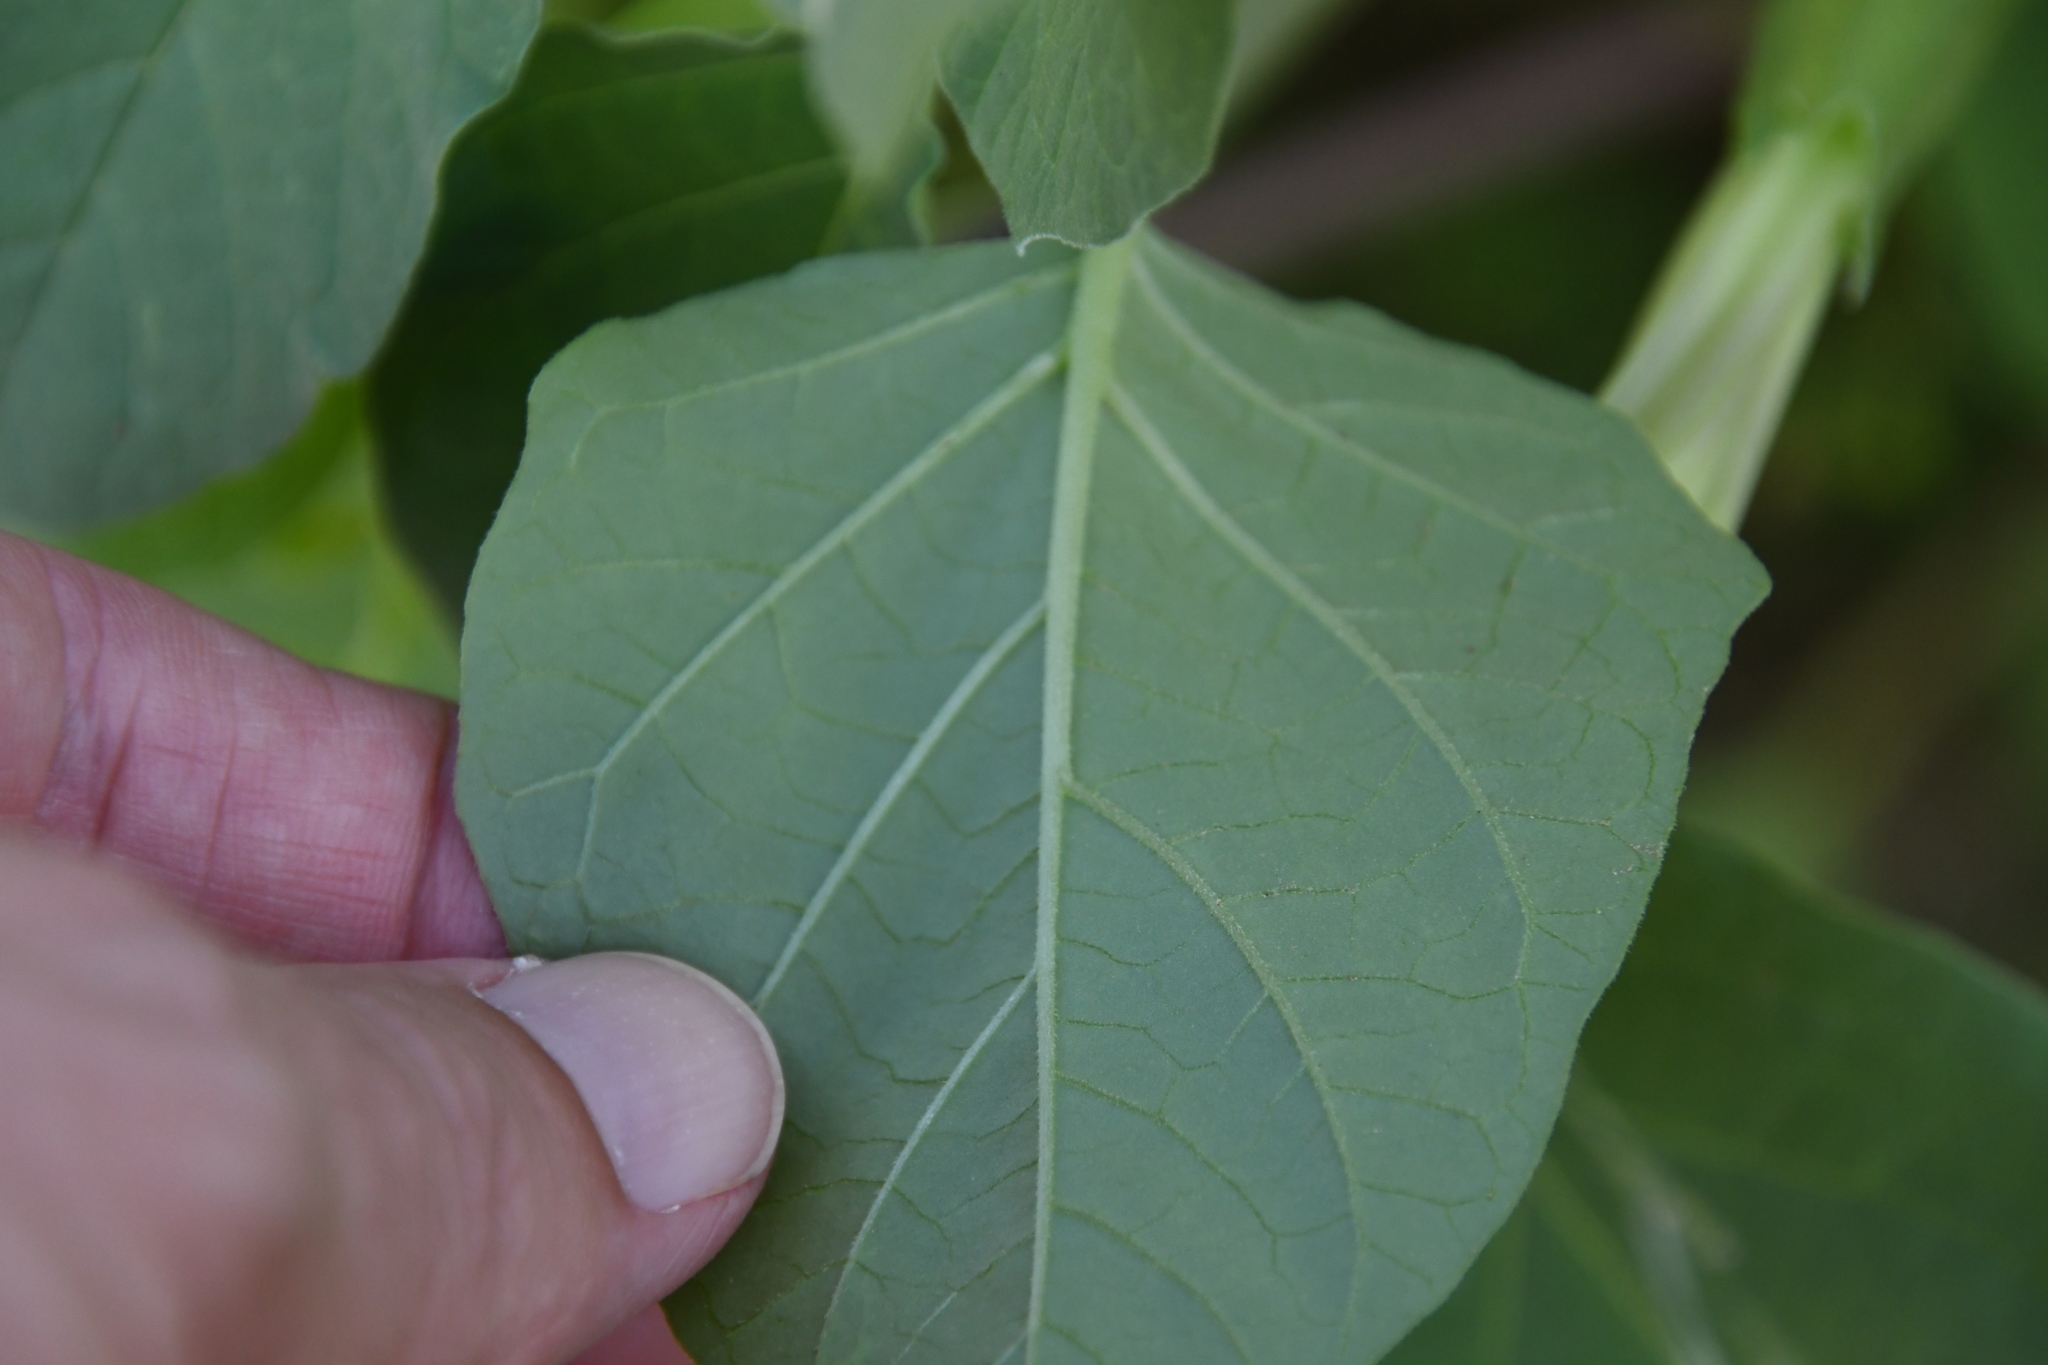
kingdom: Plantae
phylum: Tracheophyta
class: Magnoliopsida
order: Solanales
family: Solanaceae
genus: Datura
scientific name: Datura discolor
